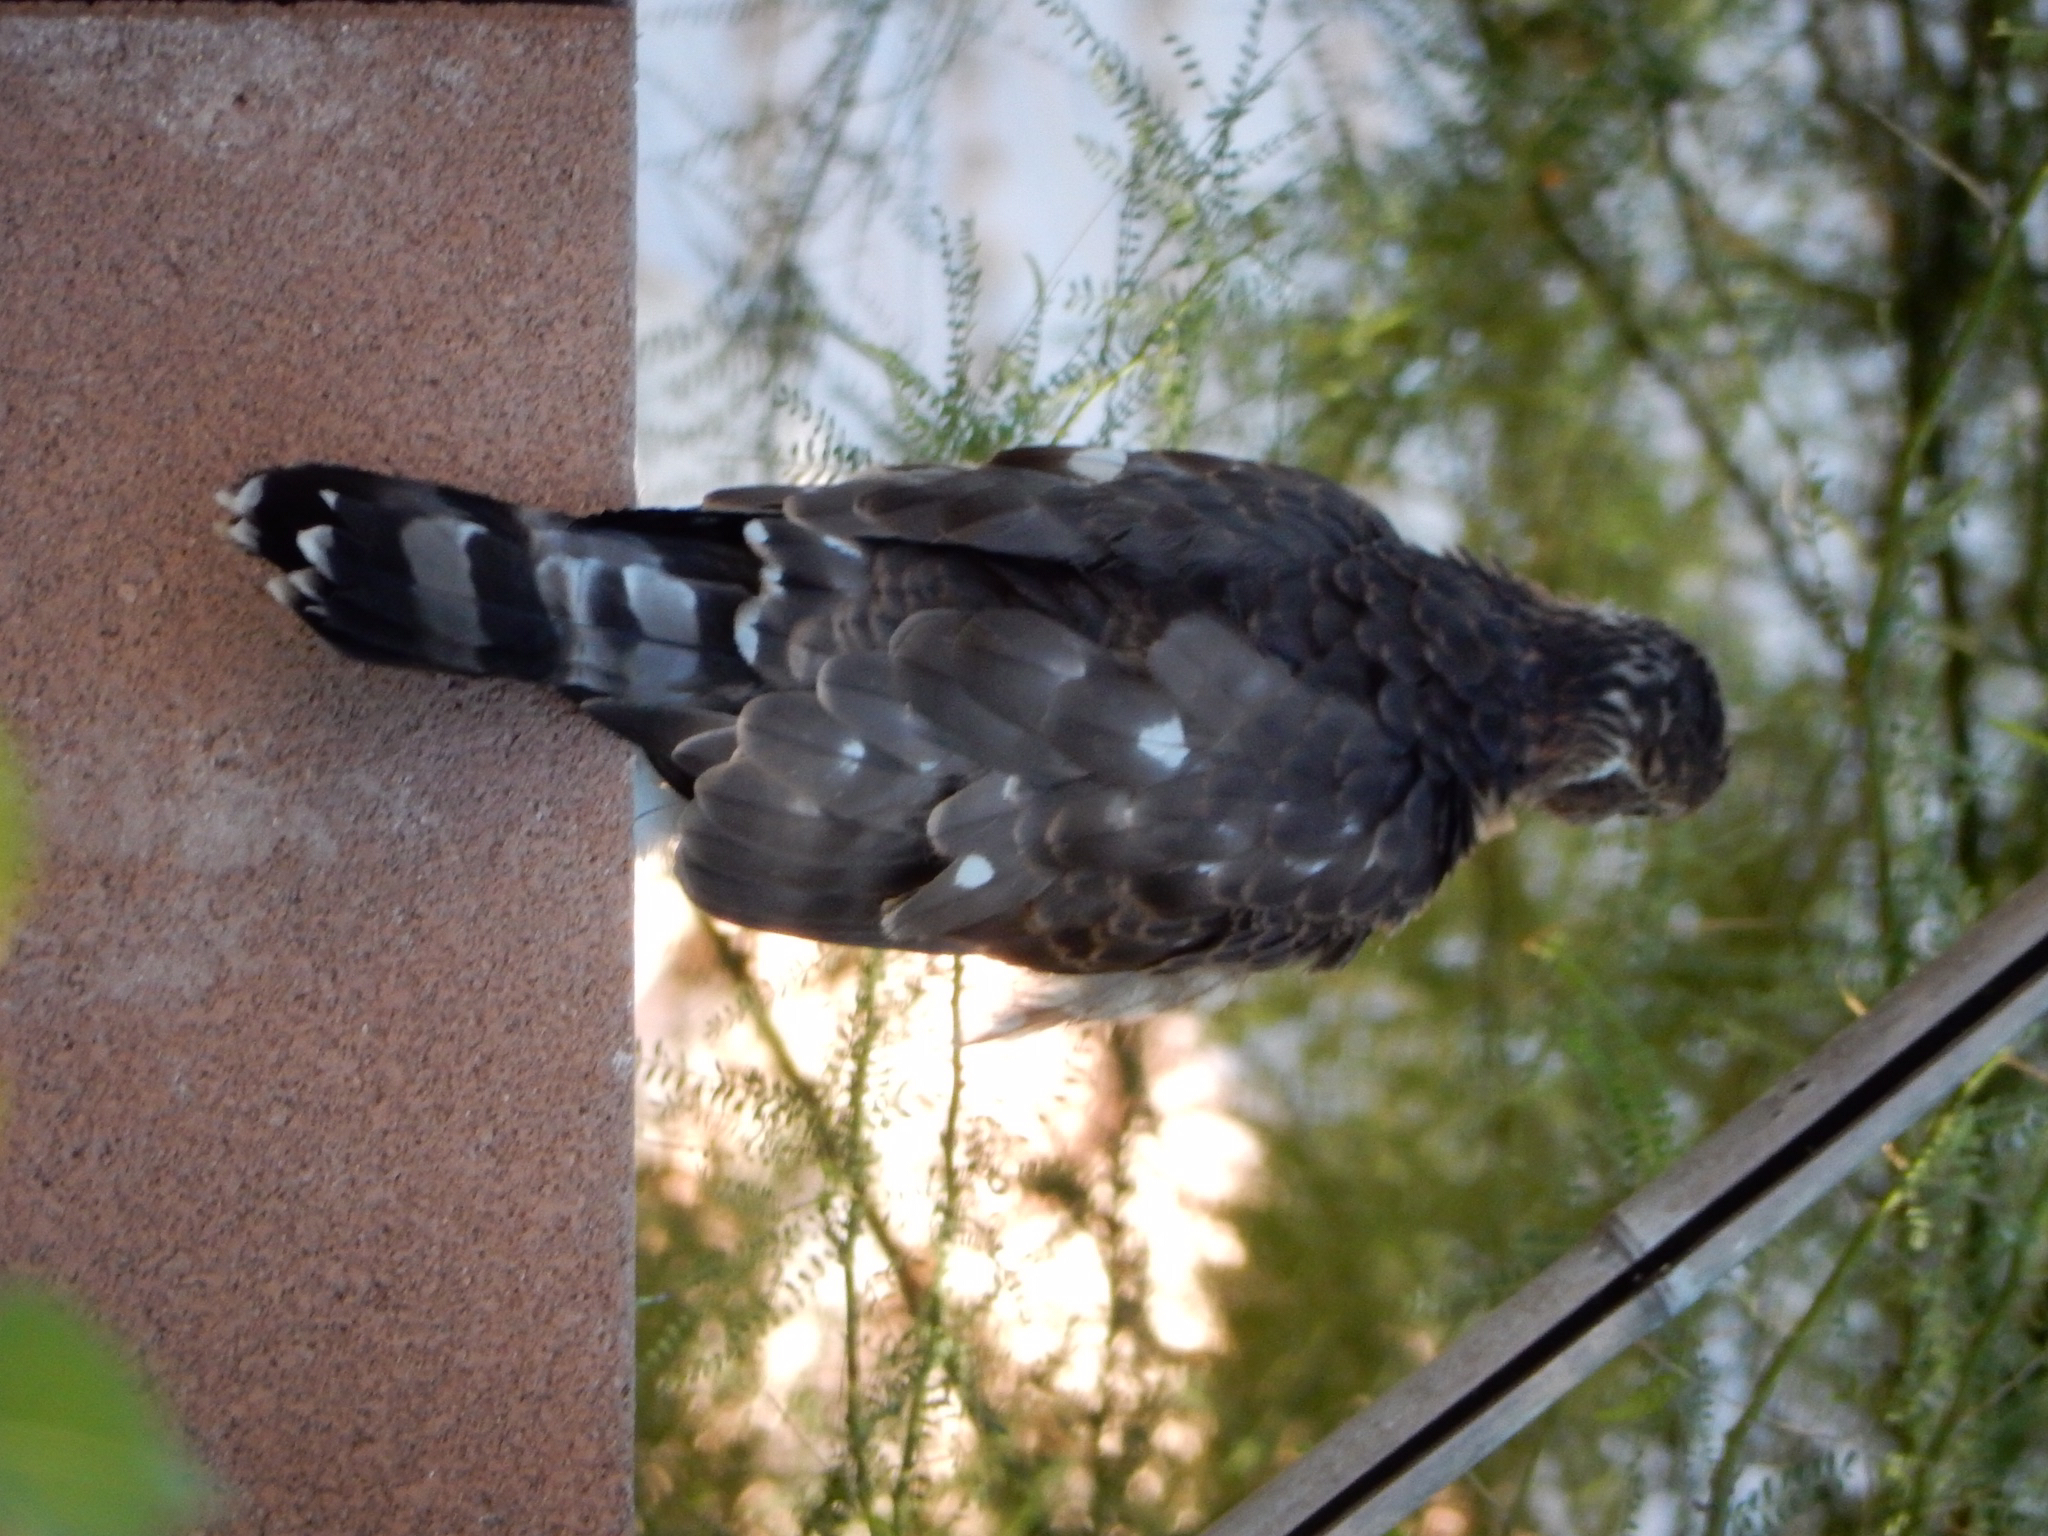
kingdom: Animalia
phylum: Chordata
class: Aves
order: Accipitriformes
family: Accipitridae
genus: Accipiter
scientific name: Accipiter cooperii
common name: Cooper's hawk
